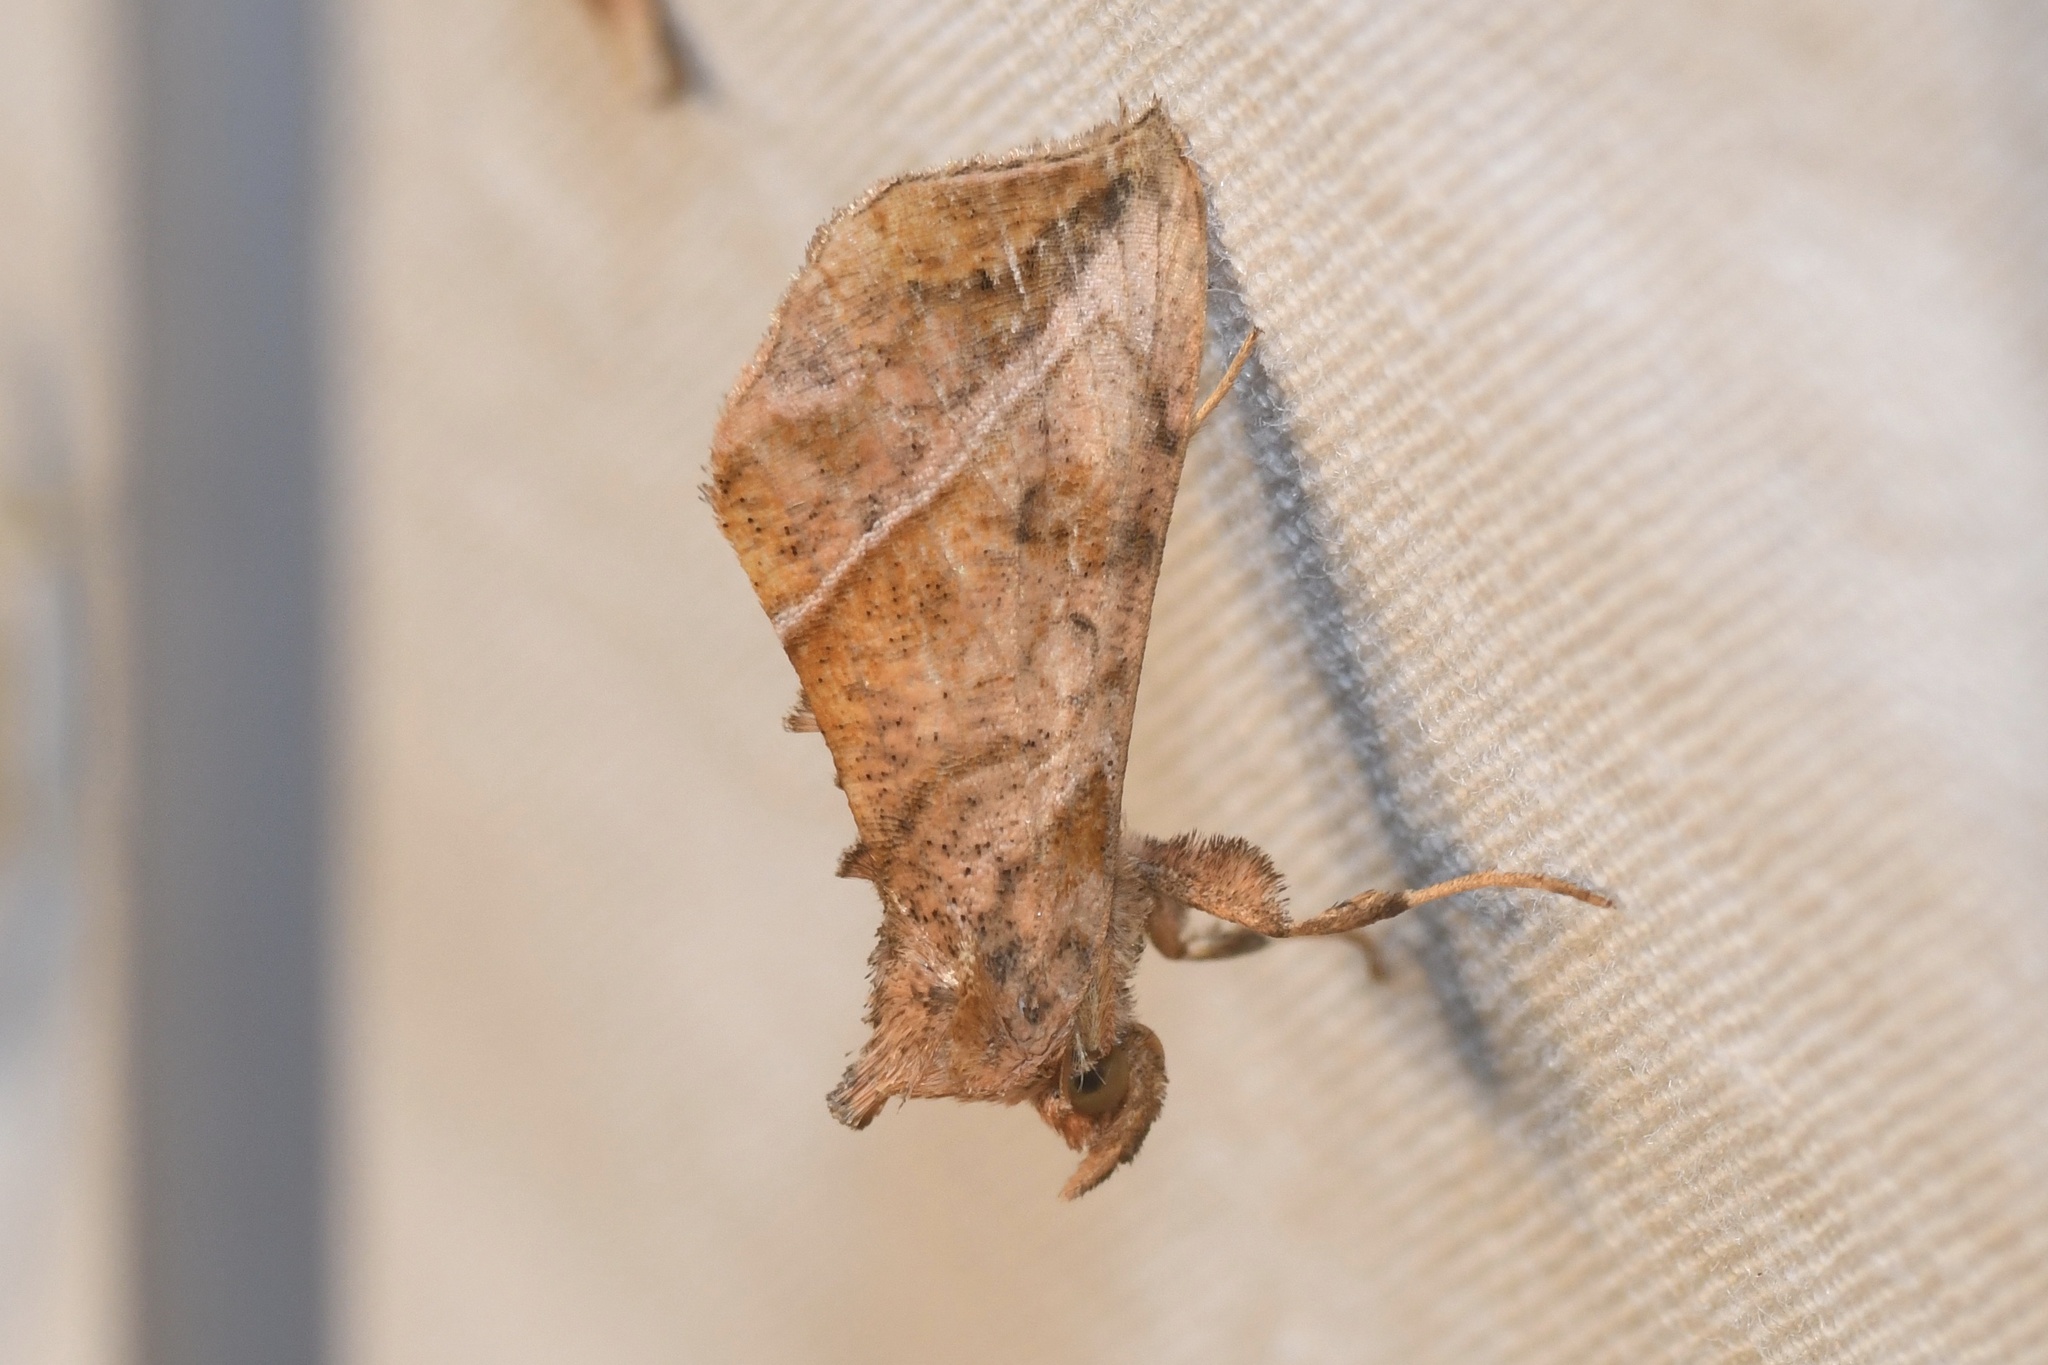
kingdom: Animalia
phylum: Arthropoda
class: Insecta
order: Lepidoptera
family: Noctuidae
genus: Pseudeva
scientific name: Pseudeva purpurigera
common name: Straight-lined looper moth
